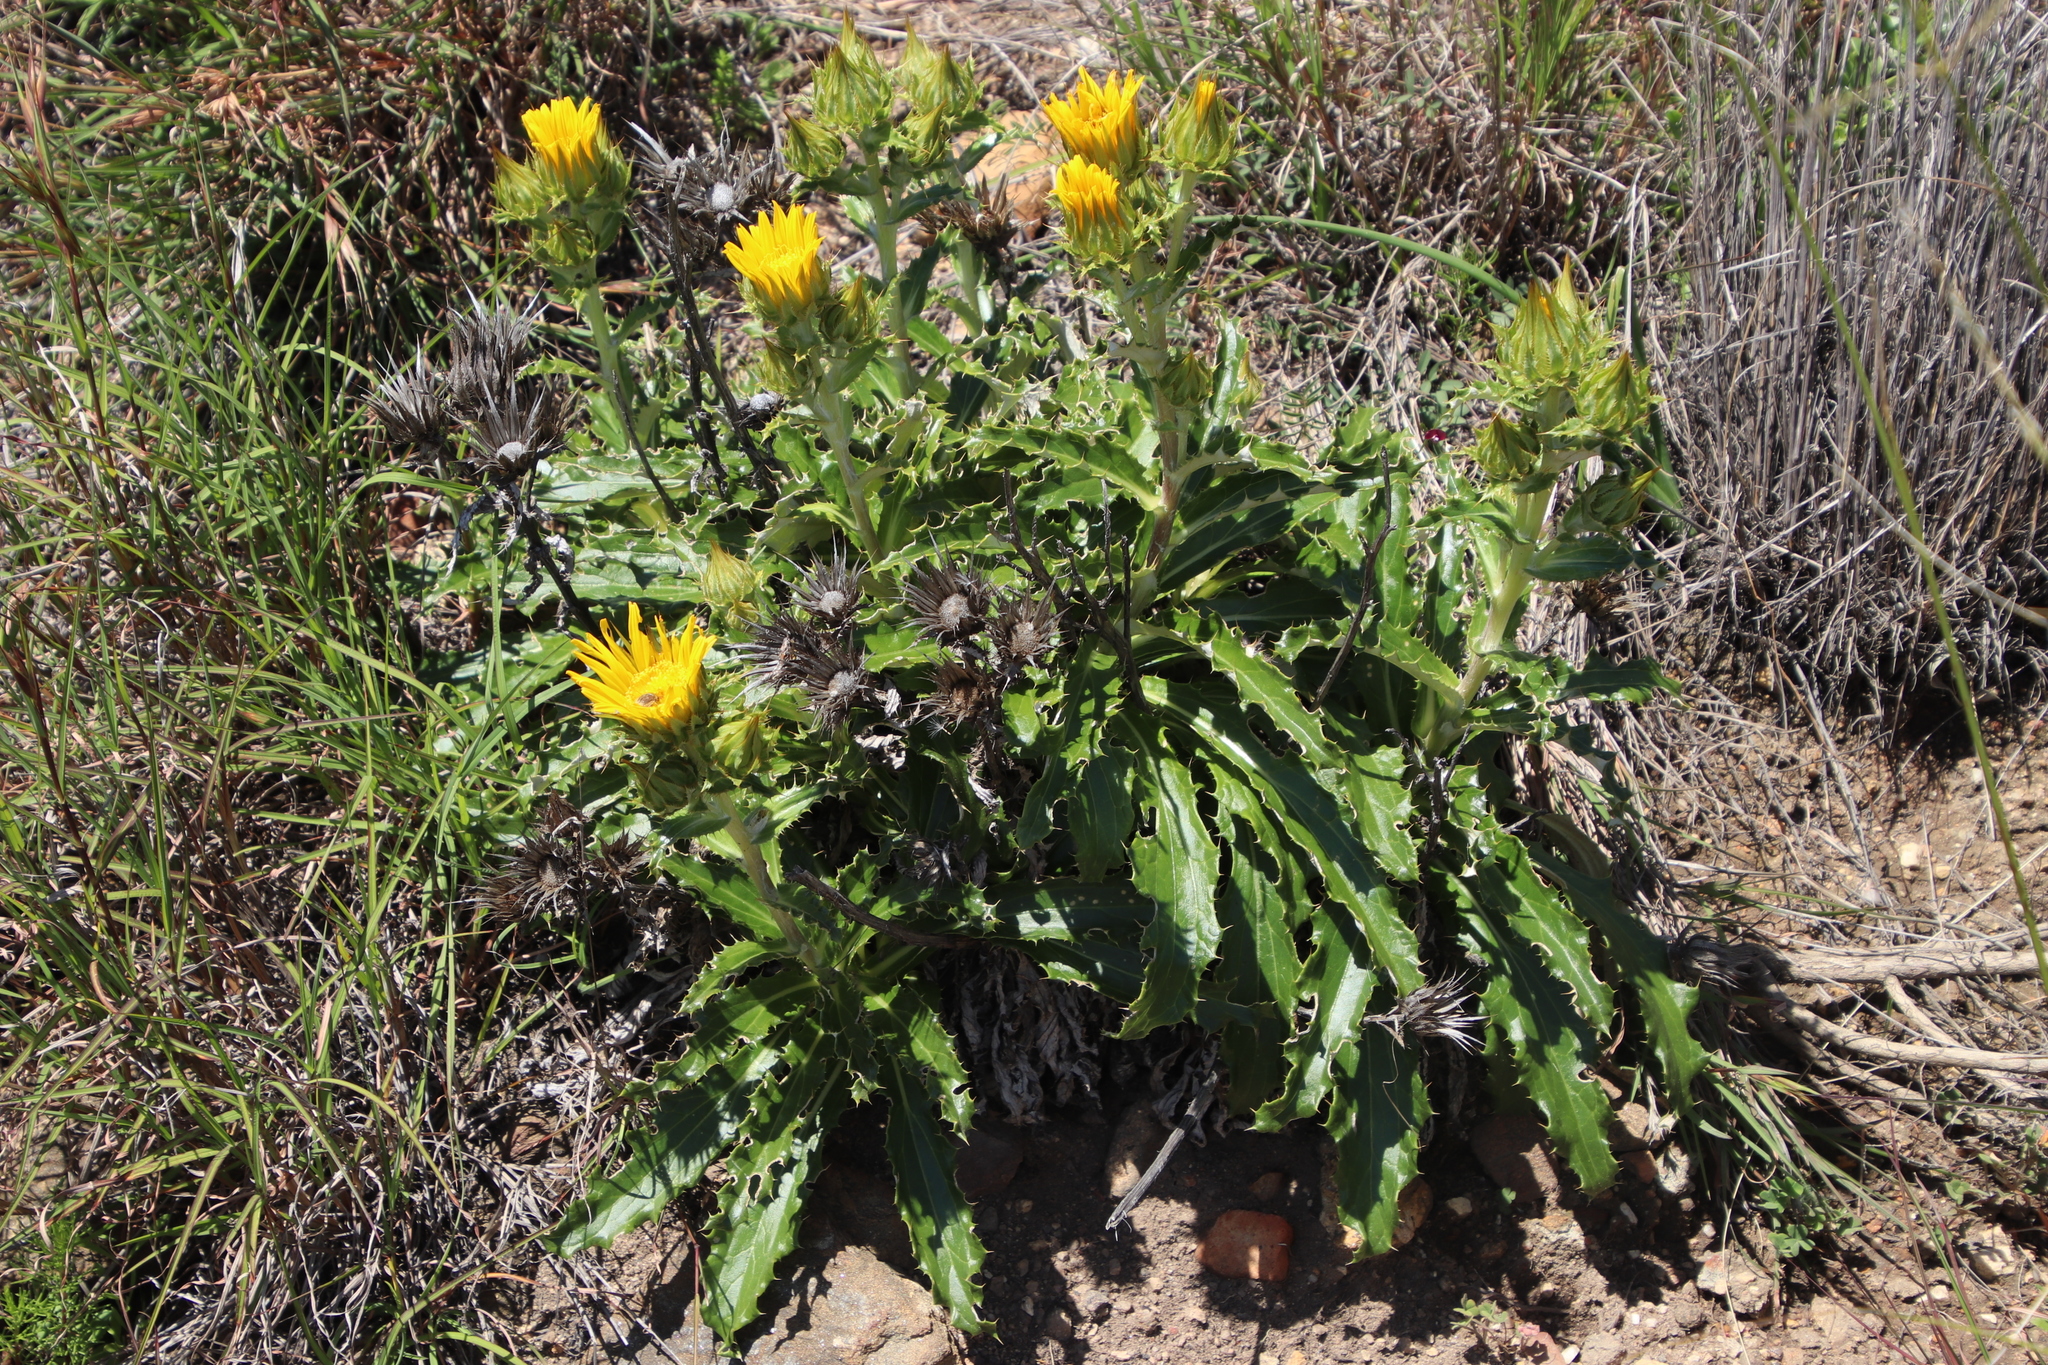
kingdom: Plantae
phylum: Tracheophyta
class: Magnoliopsida
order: Asterales
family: Asteraceae
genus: Berkheya
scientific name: Berkheya armata
